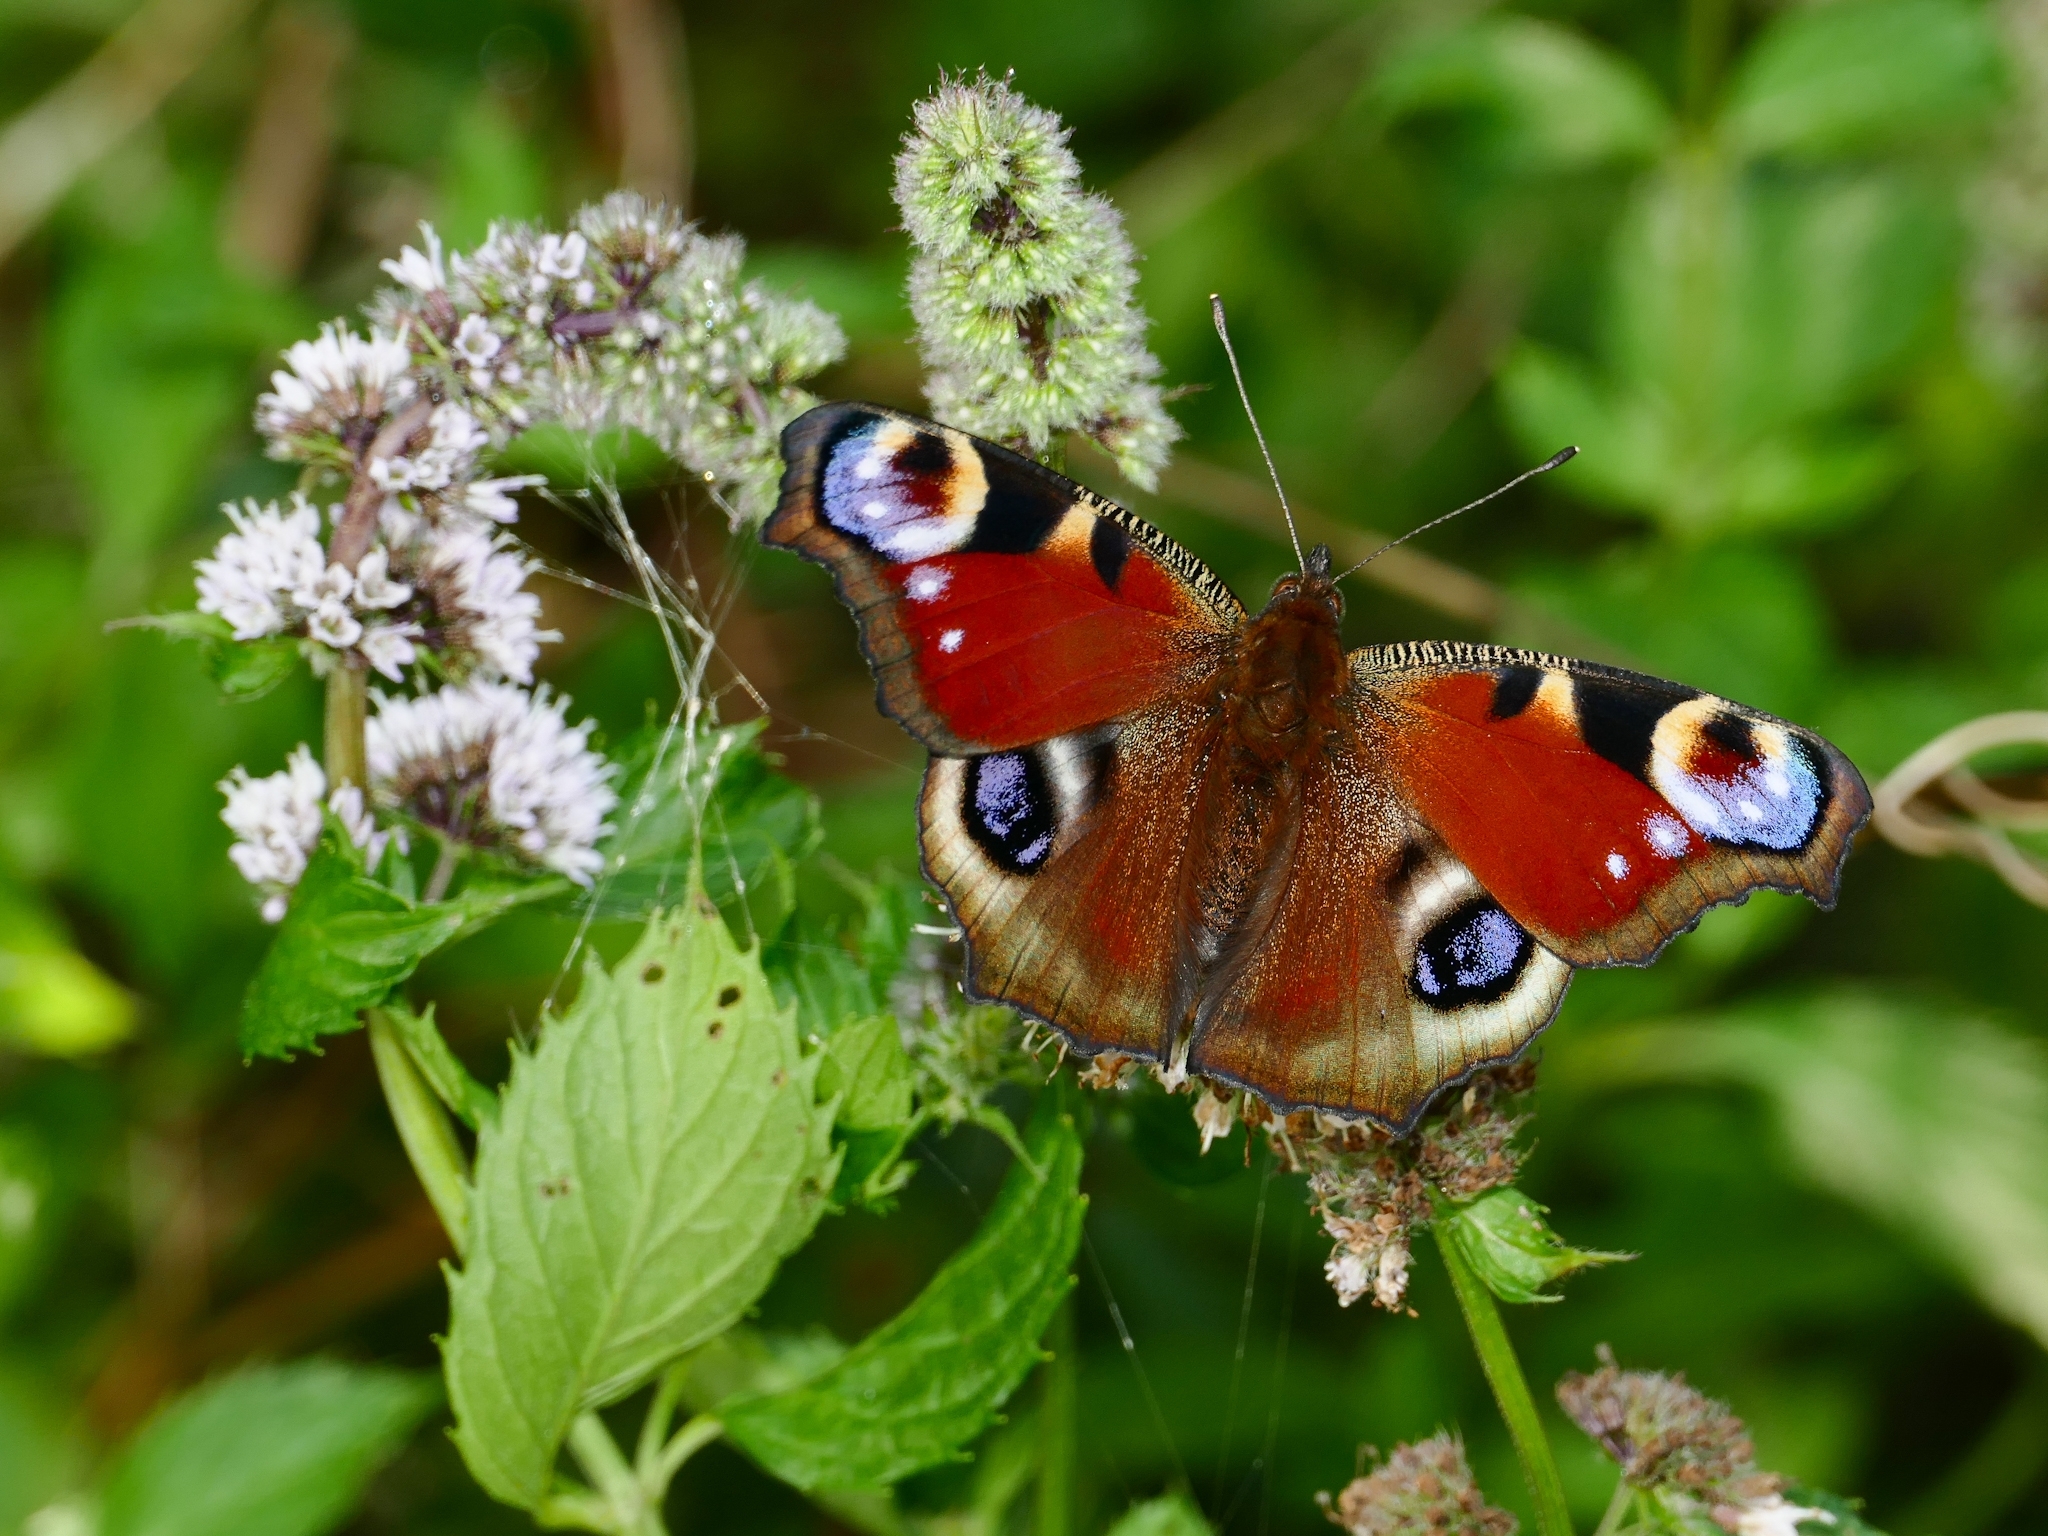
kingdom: Animalia
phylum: Arthropoda
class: Insecta
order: Lepidoptera
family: Nymphalidae
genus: Aglais
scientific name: Aglais io
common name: Peacock
